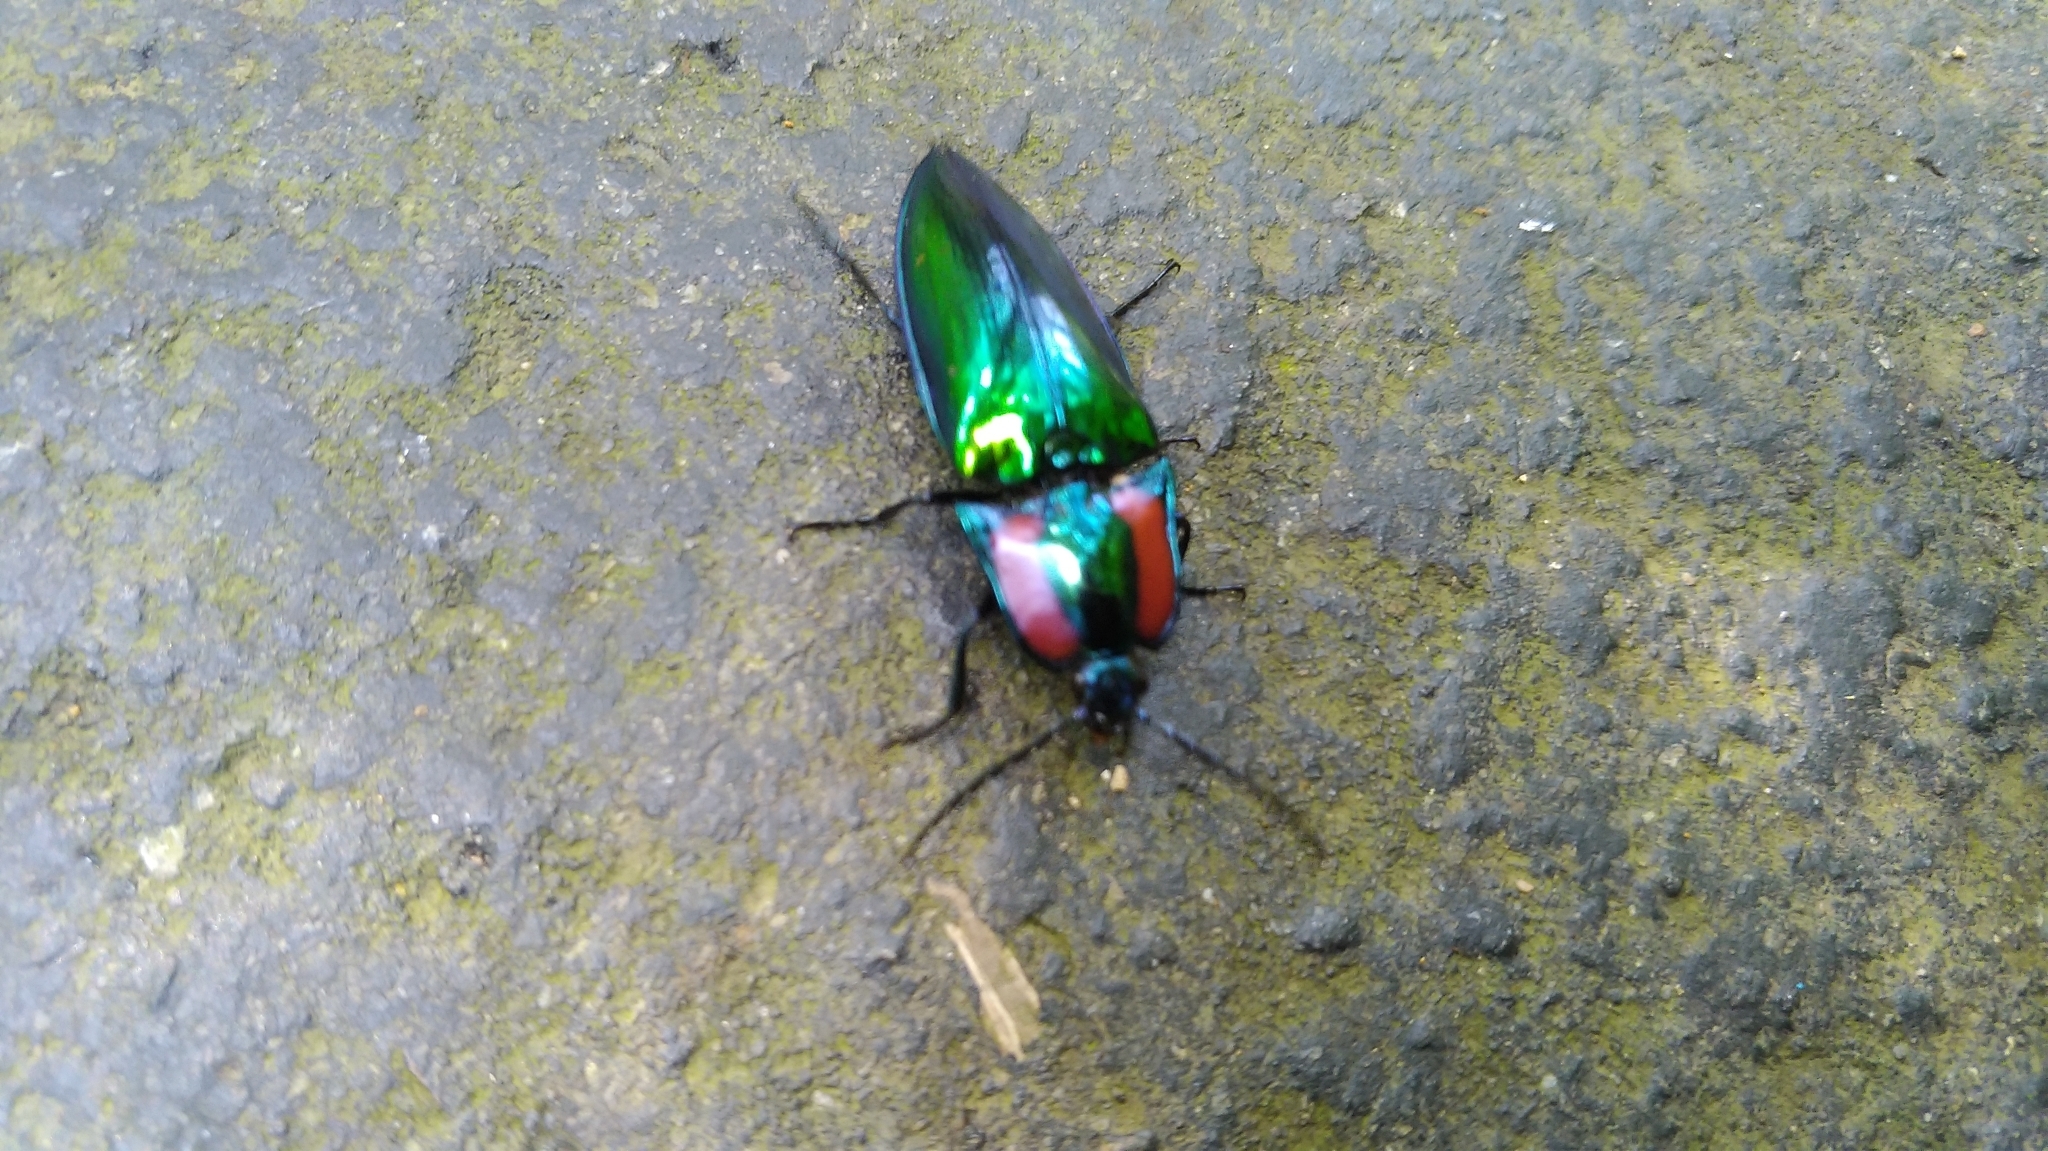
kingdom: Animalia
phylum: Arthropoda
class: Insecta
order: Coleoptera
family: Elateridae
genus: Campsosternus
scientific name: Campsosternus watanabei
